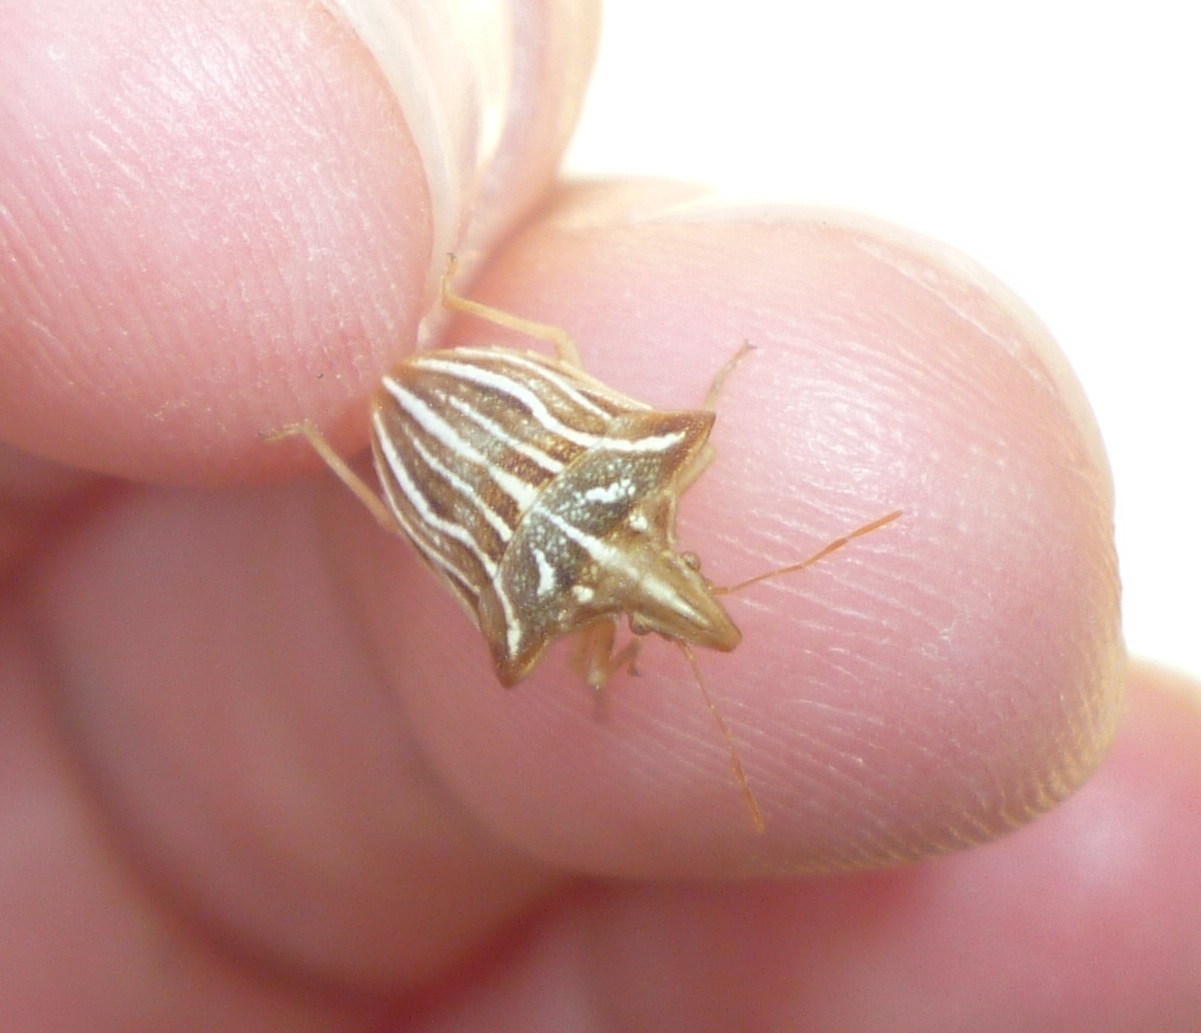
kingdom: Animalia
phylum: Arthropoda
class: Insecta
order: Hemiptera
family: Pentatomidae
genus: Ancyrosoma
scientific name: Ancyrosoma leucogrammes
